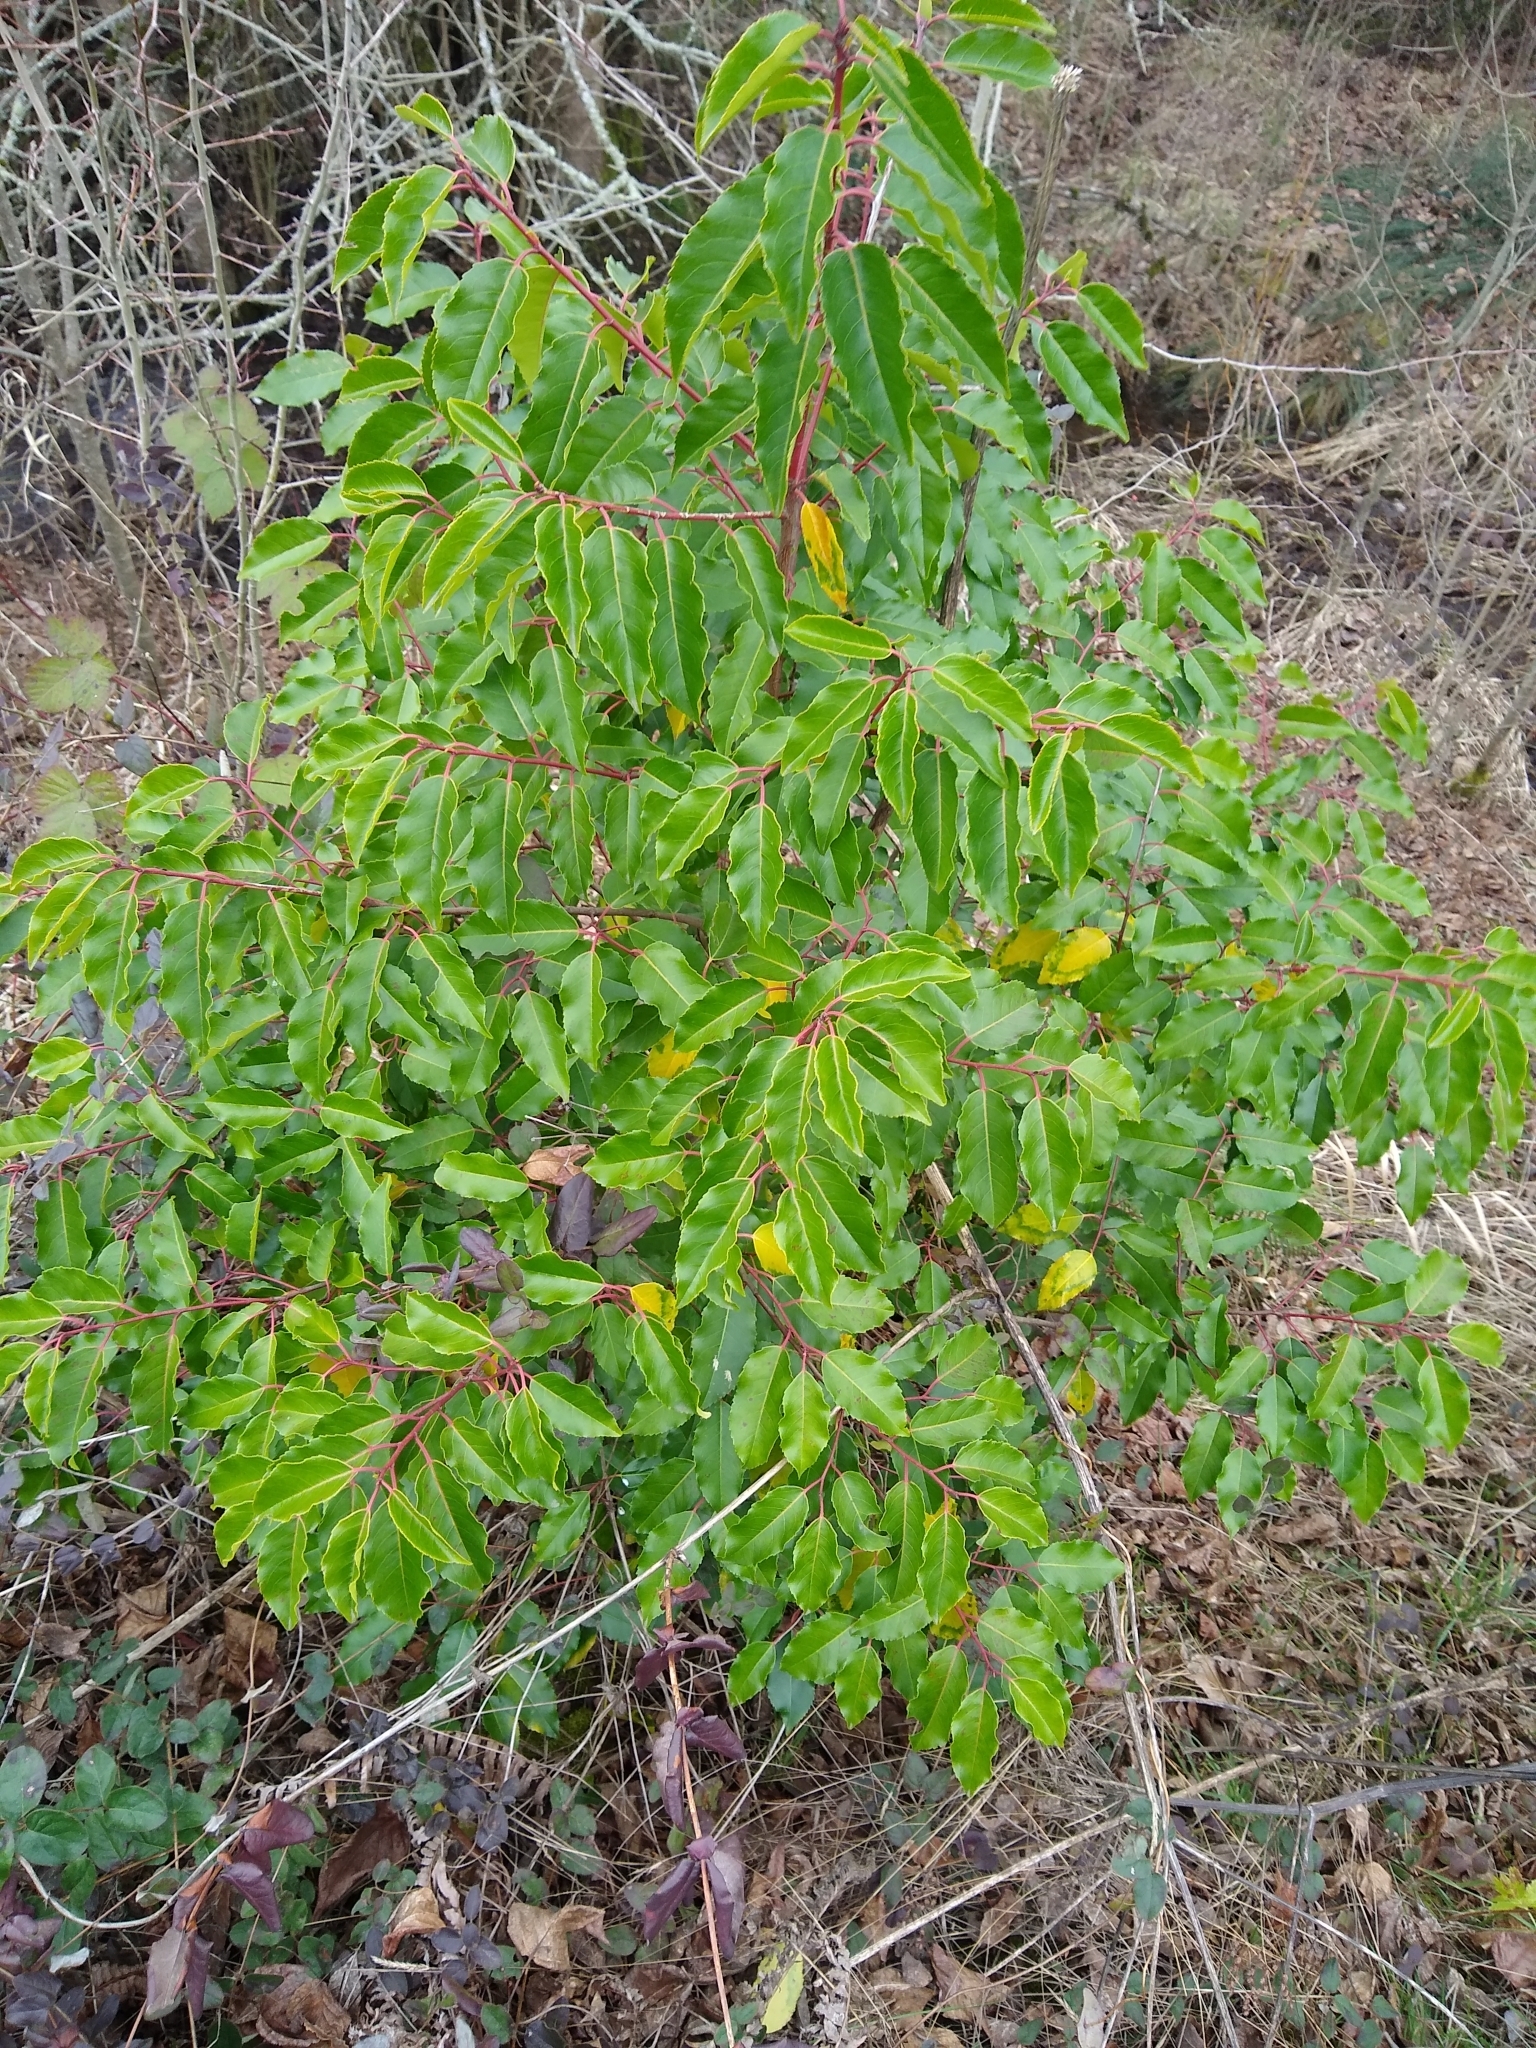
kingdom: Plantae
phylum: Tracheophyta
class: Magnoliopsida
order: Rosales
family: Rosaceae
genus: Prunus
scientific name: Prunus lusitanica
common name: Portugal laurel
